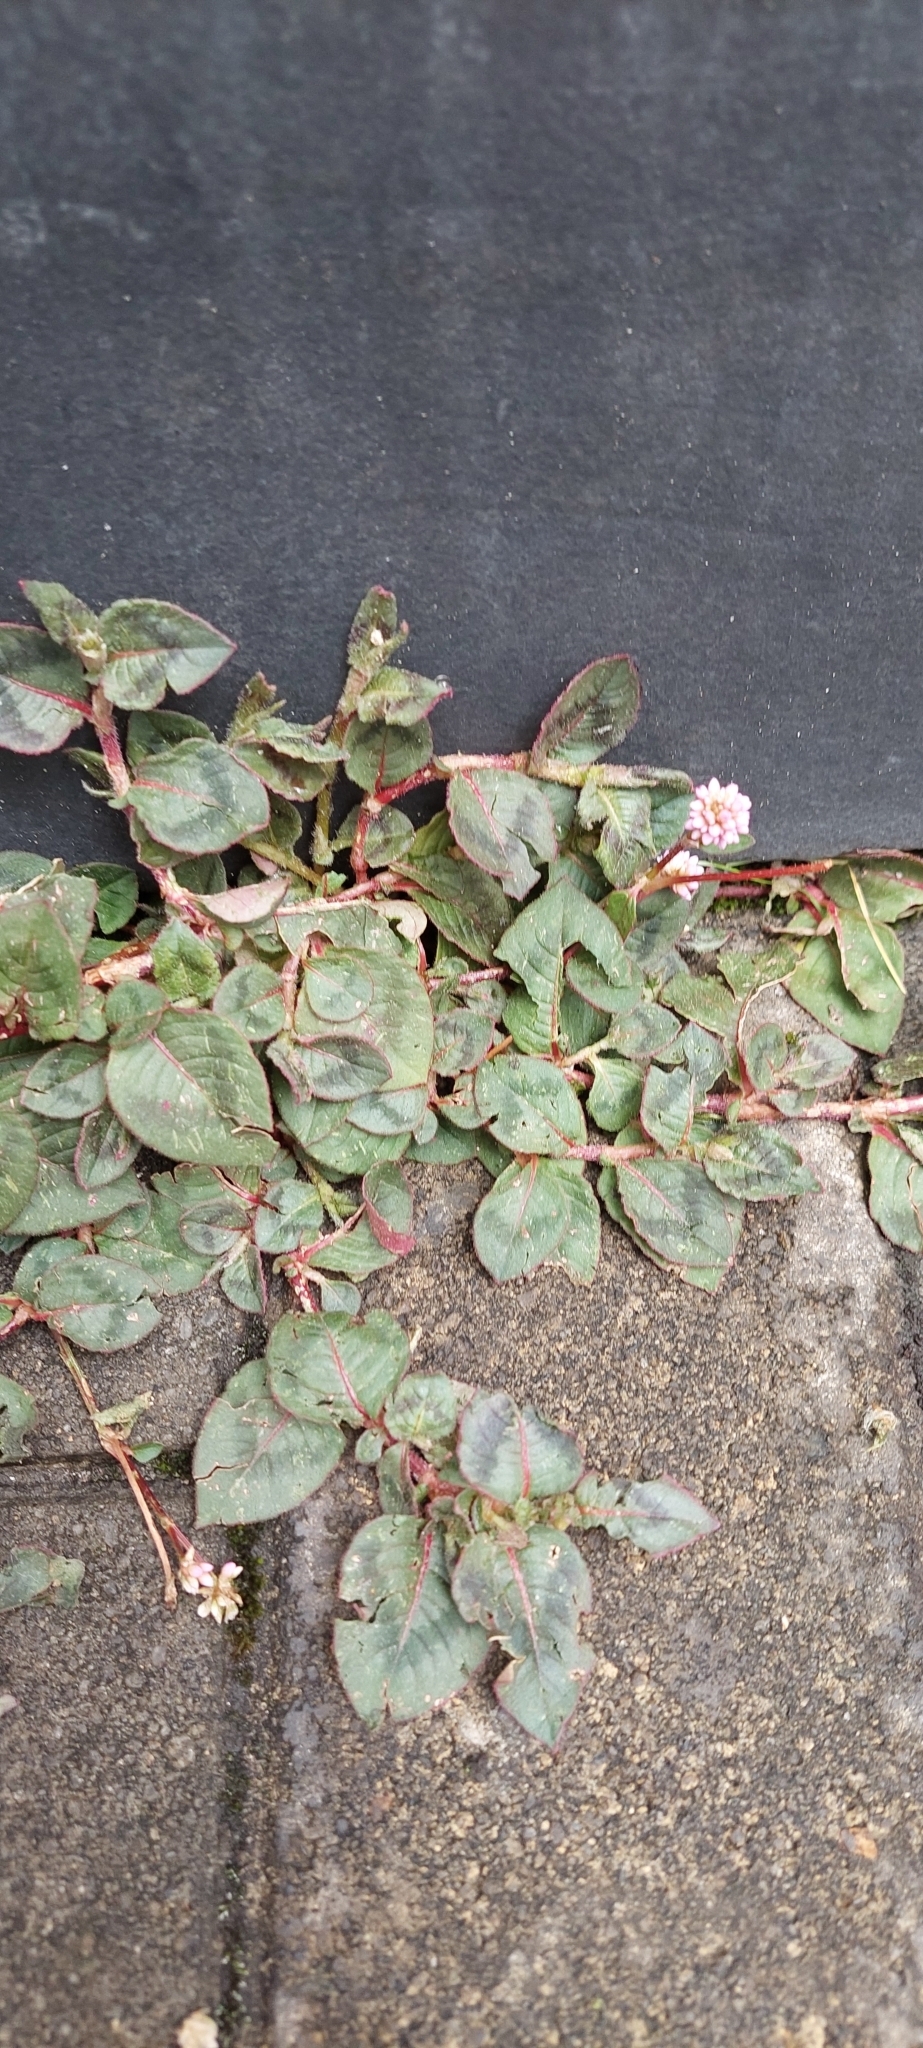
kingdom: Plantae
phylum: Tracheophyta
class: Magnoliopsida
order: Caryophyllales
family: Polygonaceae
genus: Persicaria
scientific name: Persicaria capitata
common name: Pinkhead smartweed
